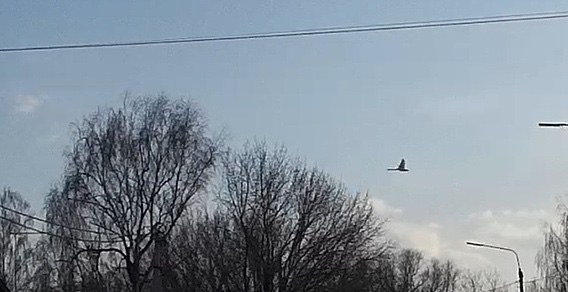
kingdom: Animalia
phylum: Chordata
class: Aves
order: Anseriformes
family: Anatidae
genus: Cygnus
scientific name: Cygnus olor
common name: Mute swan
